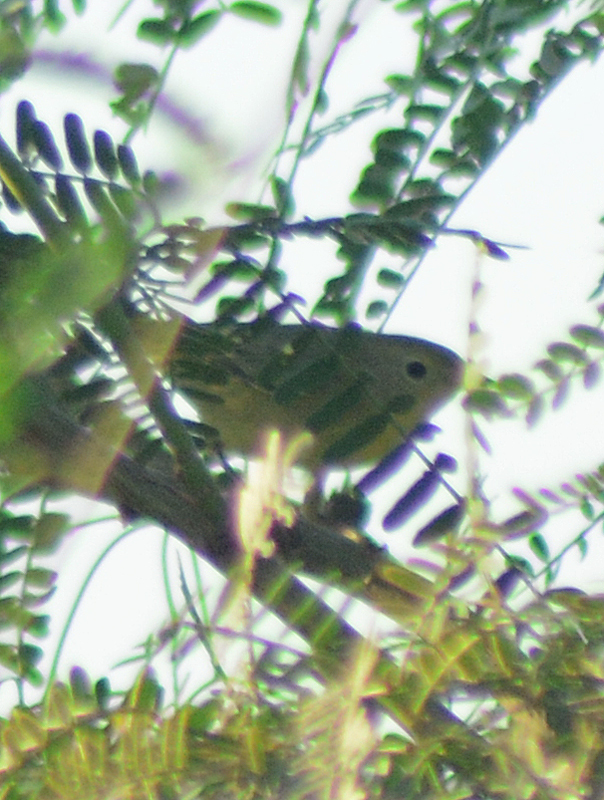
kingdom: Animalia
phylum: Chordata
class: Aves
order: Passeriformes
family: Parulidae
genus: Leiothlypis
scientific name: Leiothlypis celata
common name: Orange-crowned warbler
